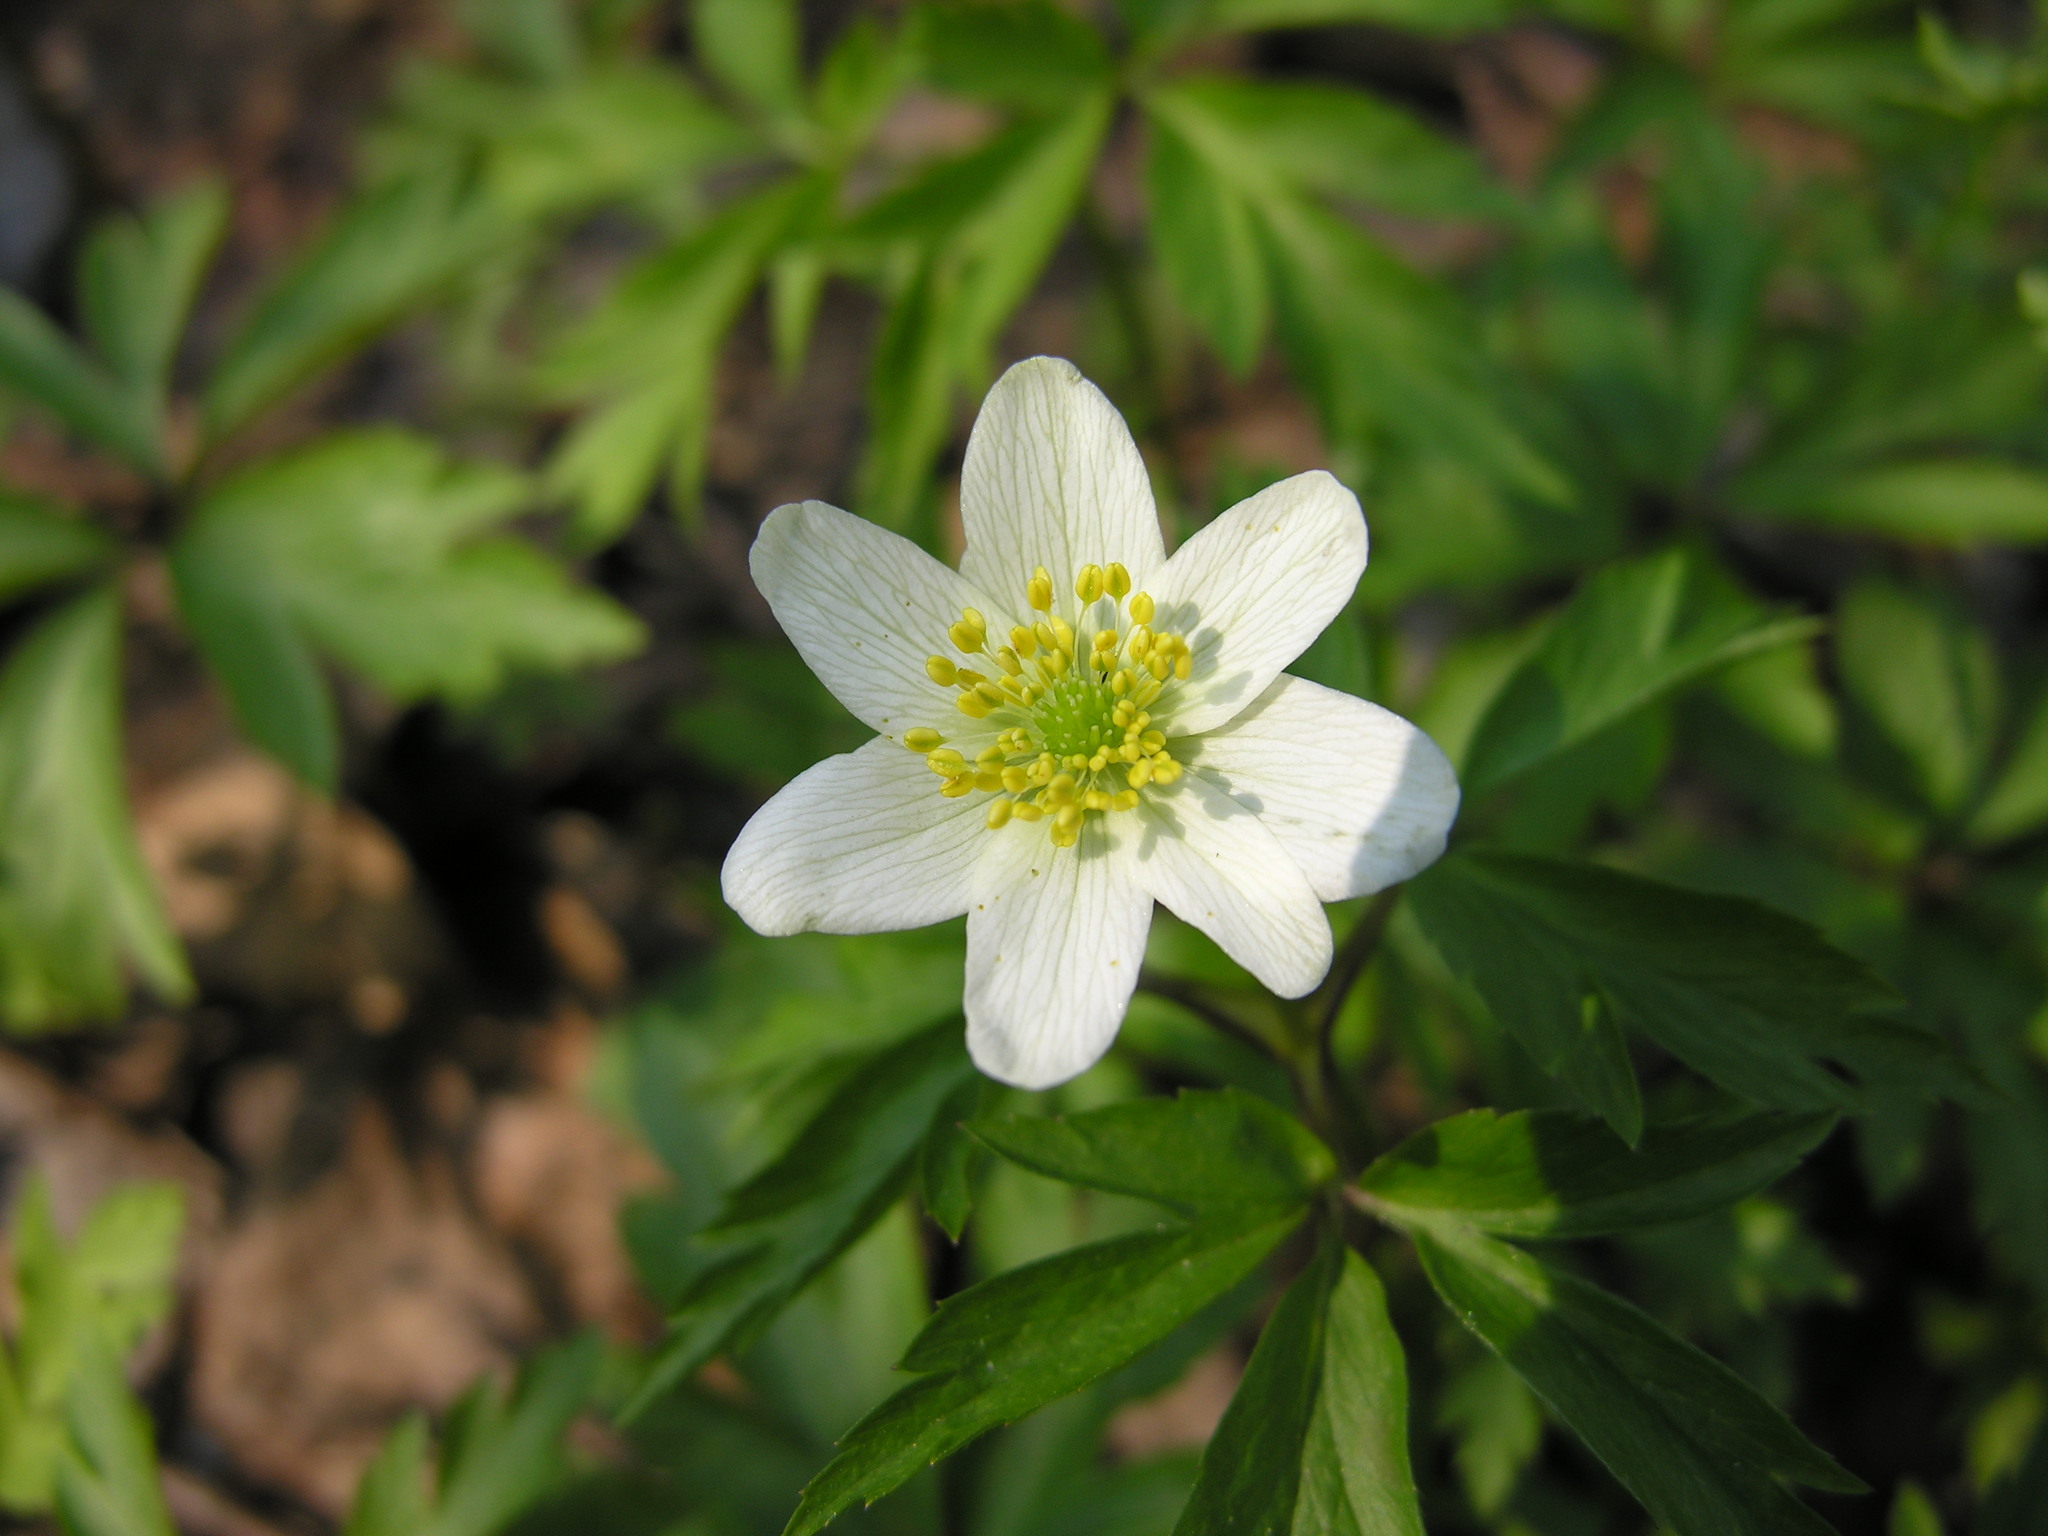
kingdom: Plantae
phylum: Tracheophyta
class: Magnoliopsida
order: Ranunculales
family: Ranunculaceae
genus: Anemone
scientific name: Anemone nemorosa
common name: Wood anemone
